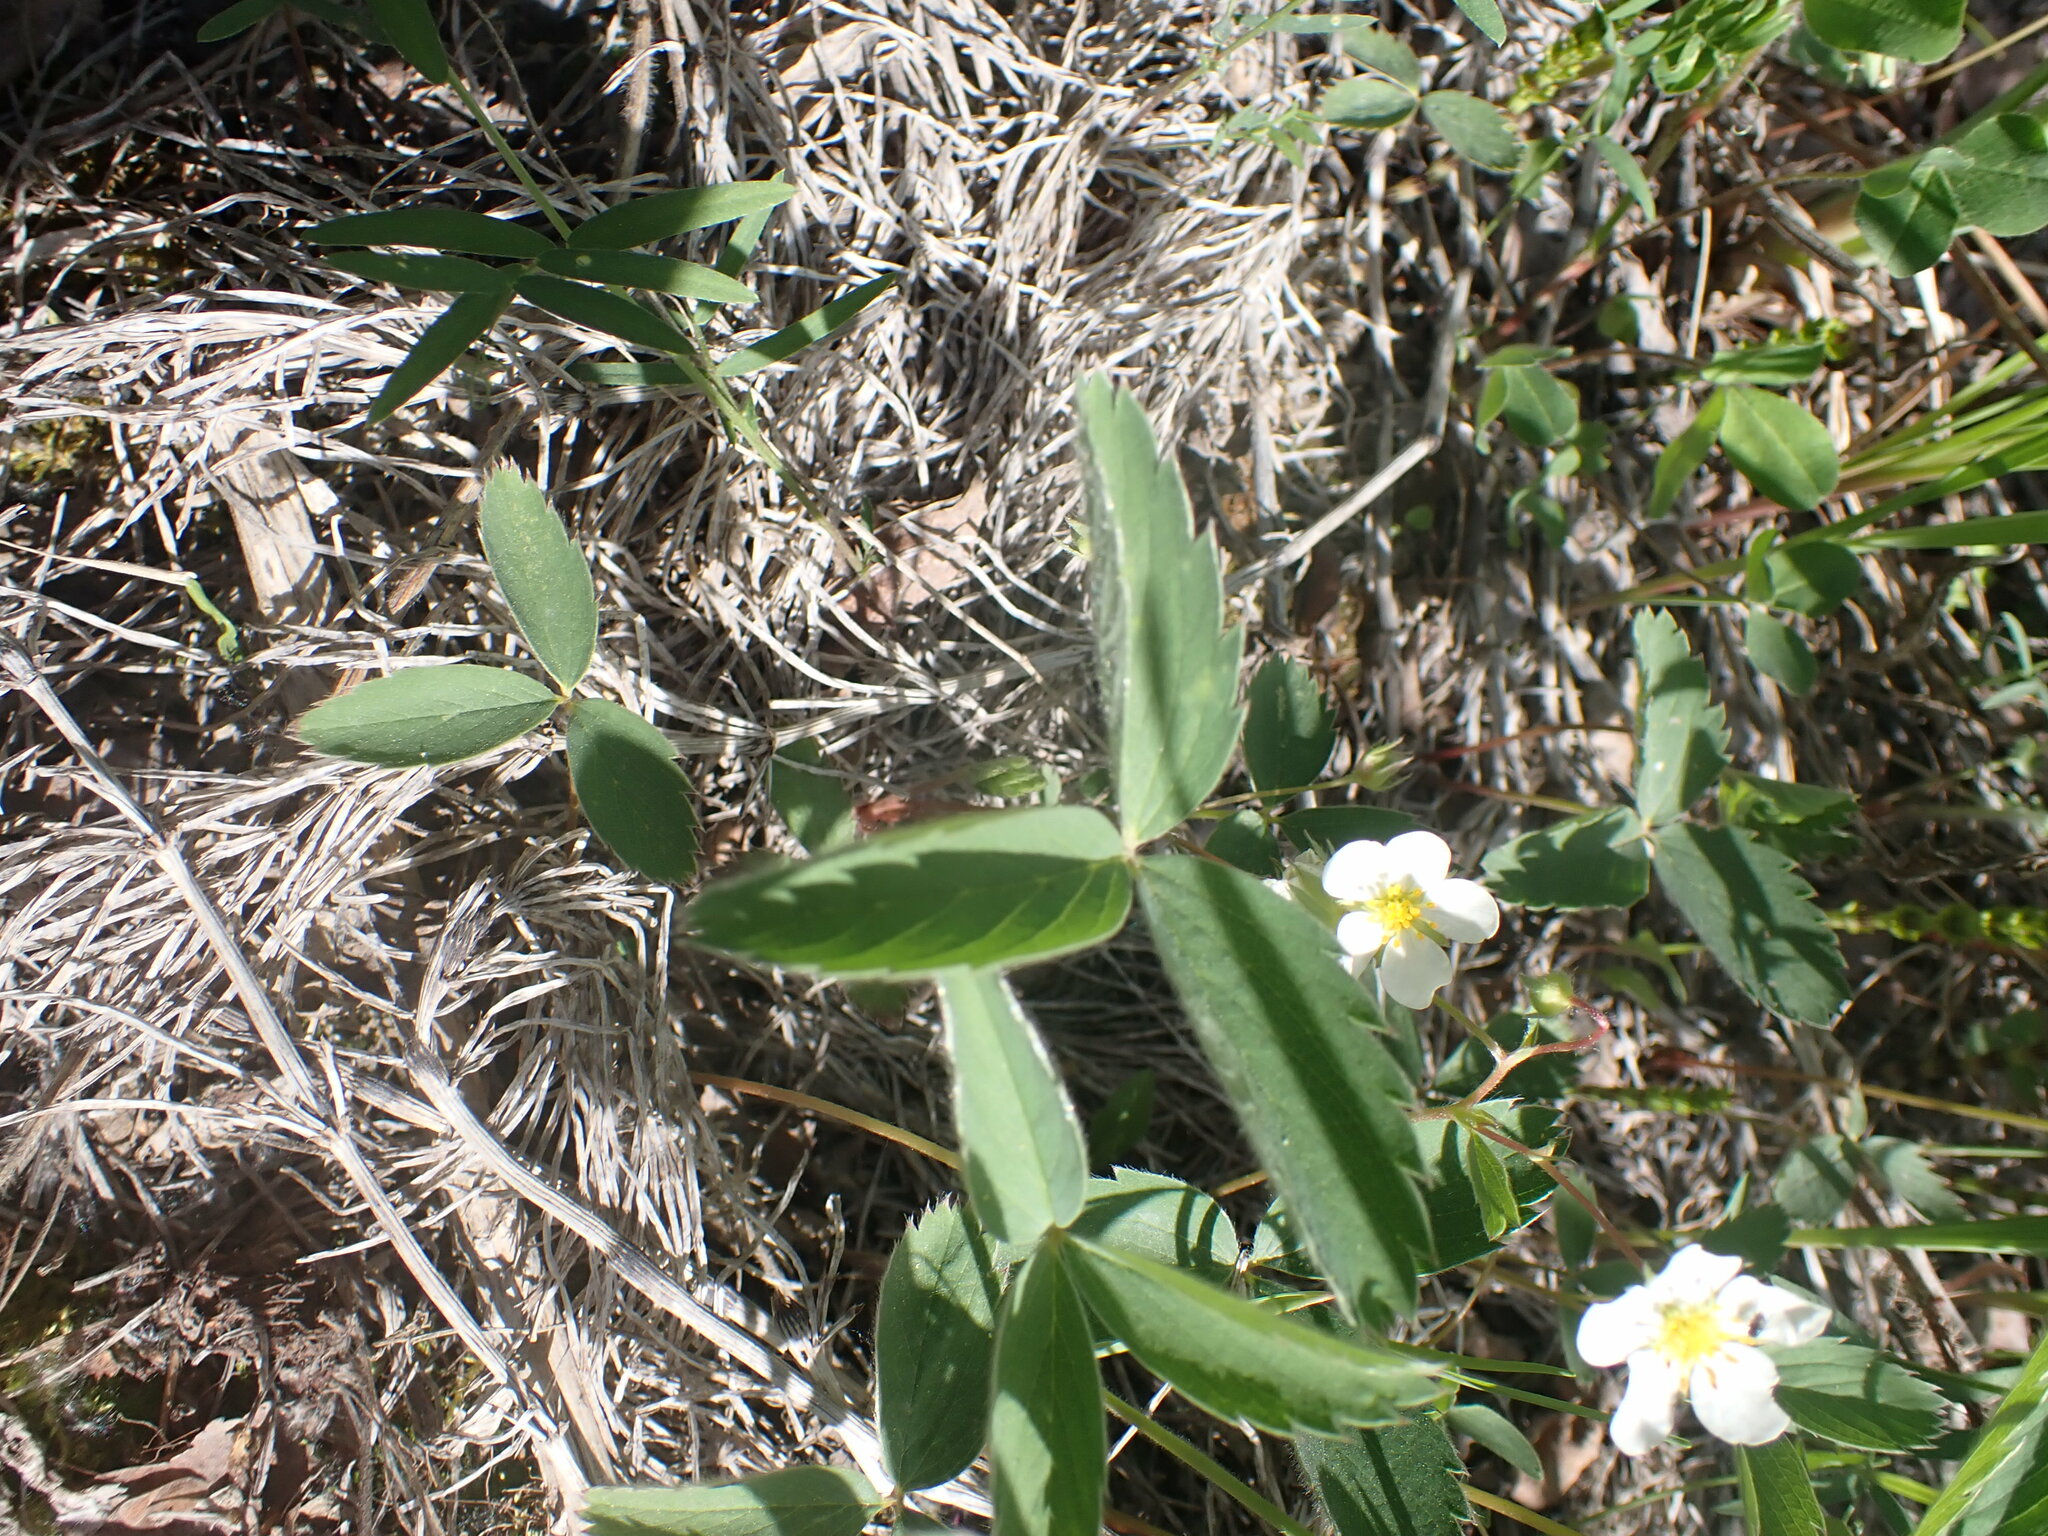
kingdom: Plantae
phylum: Tracheophyta
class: Magnoliopsida
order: Rosales
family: Rosaceae
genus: Fragaria
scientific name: Fragaria virginiana
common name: Thickleaved wild strawberry
